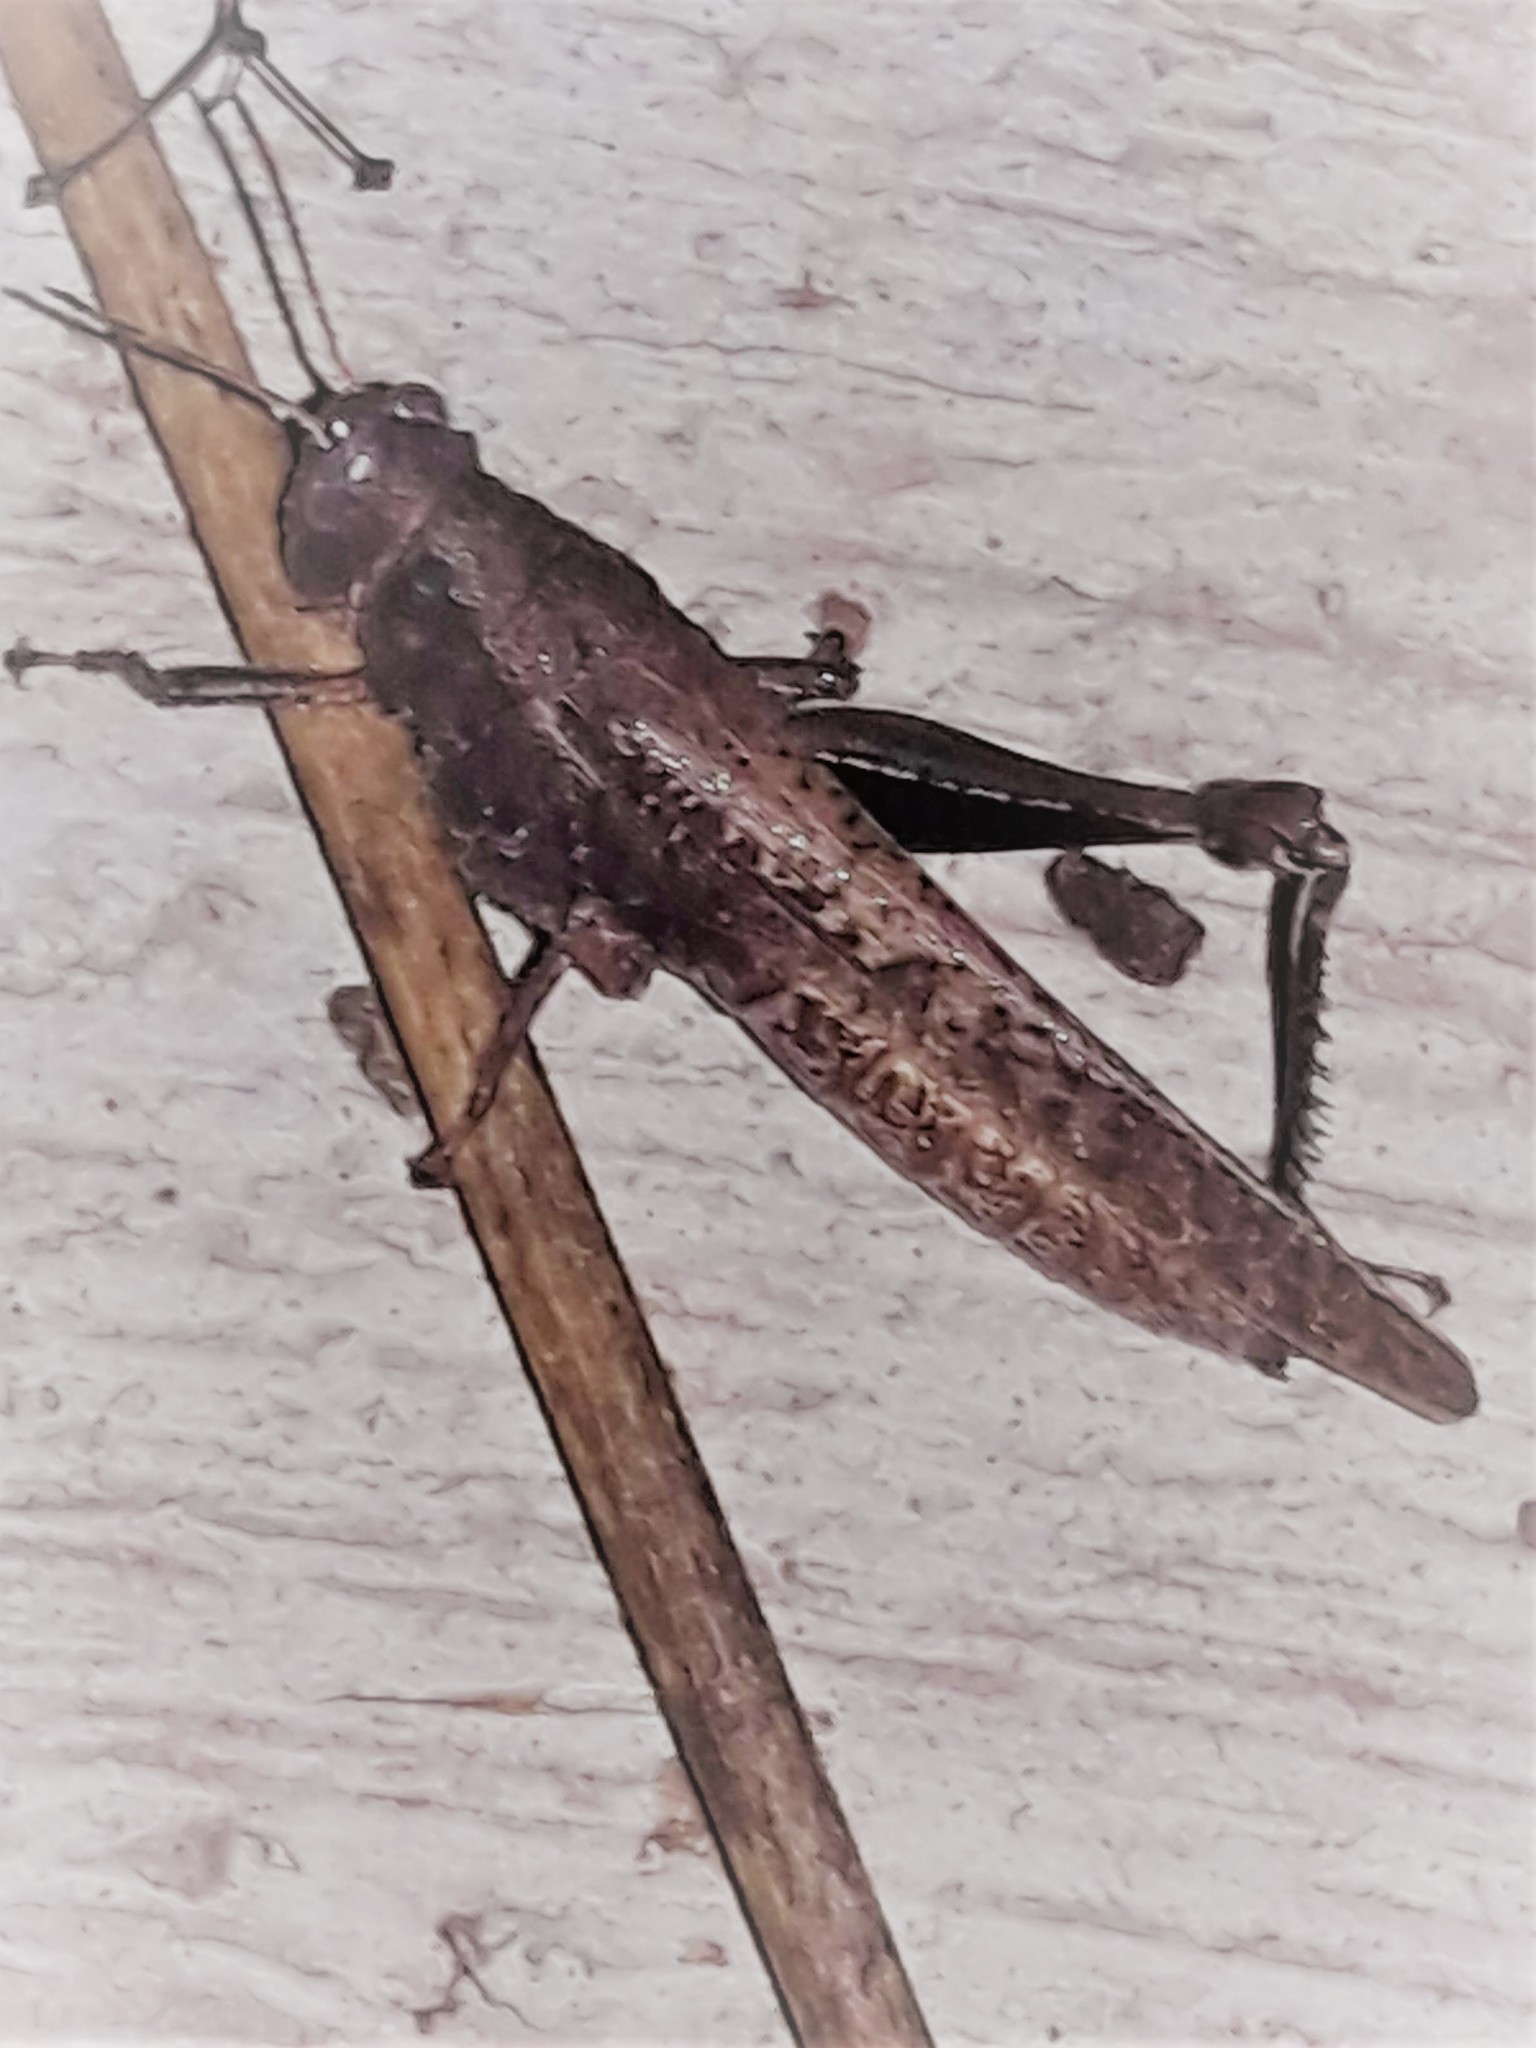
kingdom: Animalia
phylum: Arthropoda
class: Insecta
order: Orthoptera
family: Acrididae
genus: Abracris
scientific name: Abracris flavolineata
